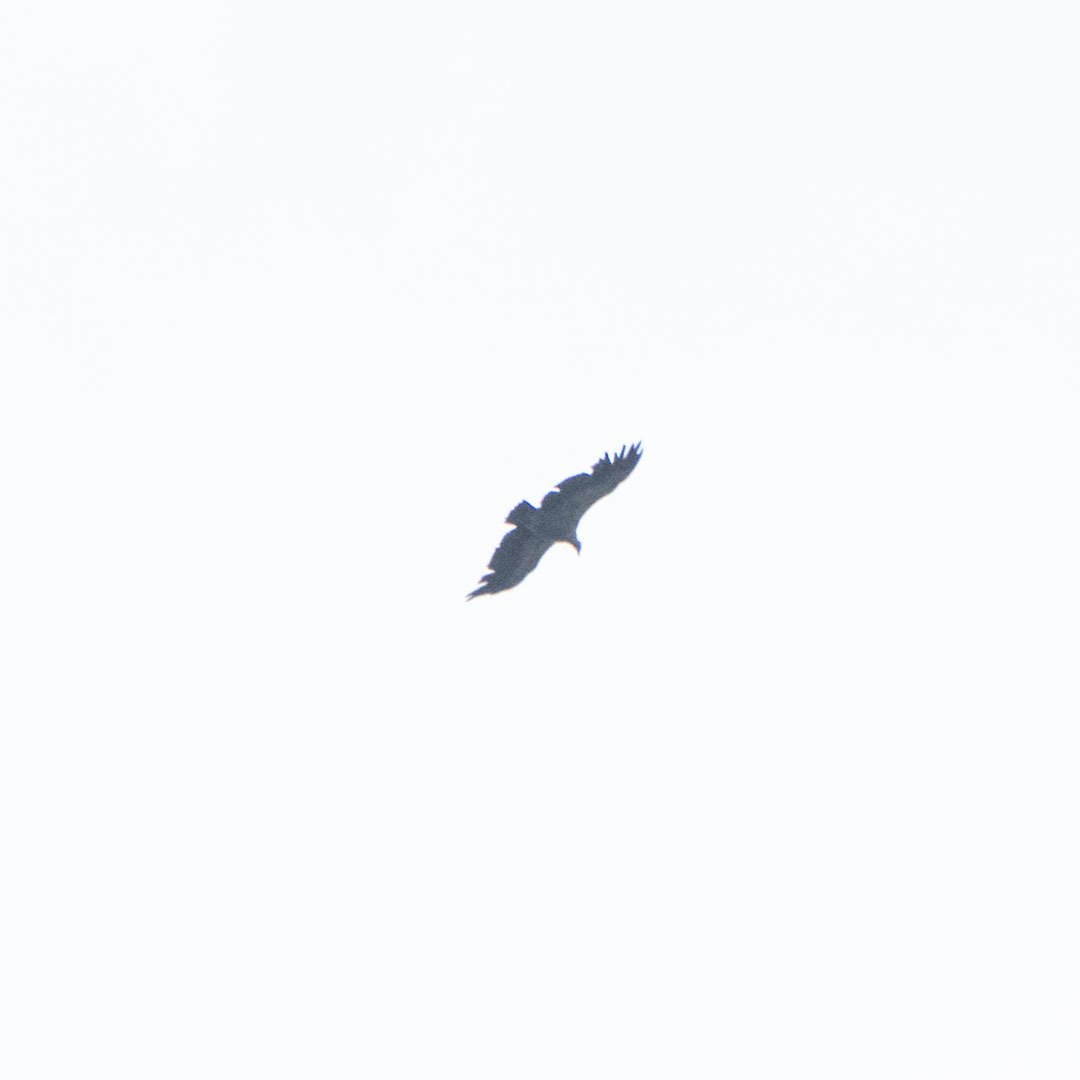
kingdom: Animalia
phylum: Chordata
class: Aves
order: Accipitriformes
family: Accipitridae
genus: Gyps
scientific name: Gyps fulvus
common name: Griffon vulture
